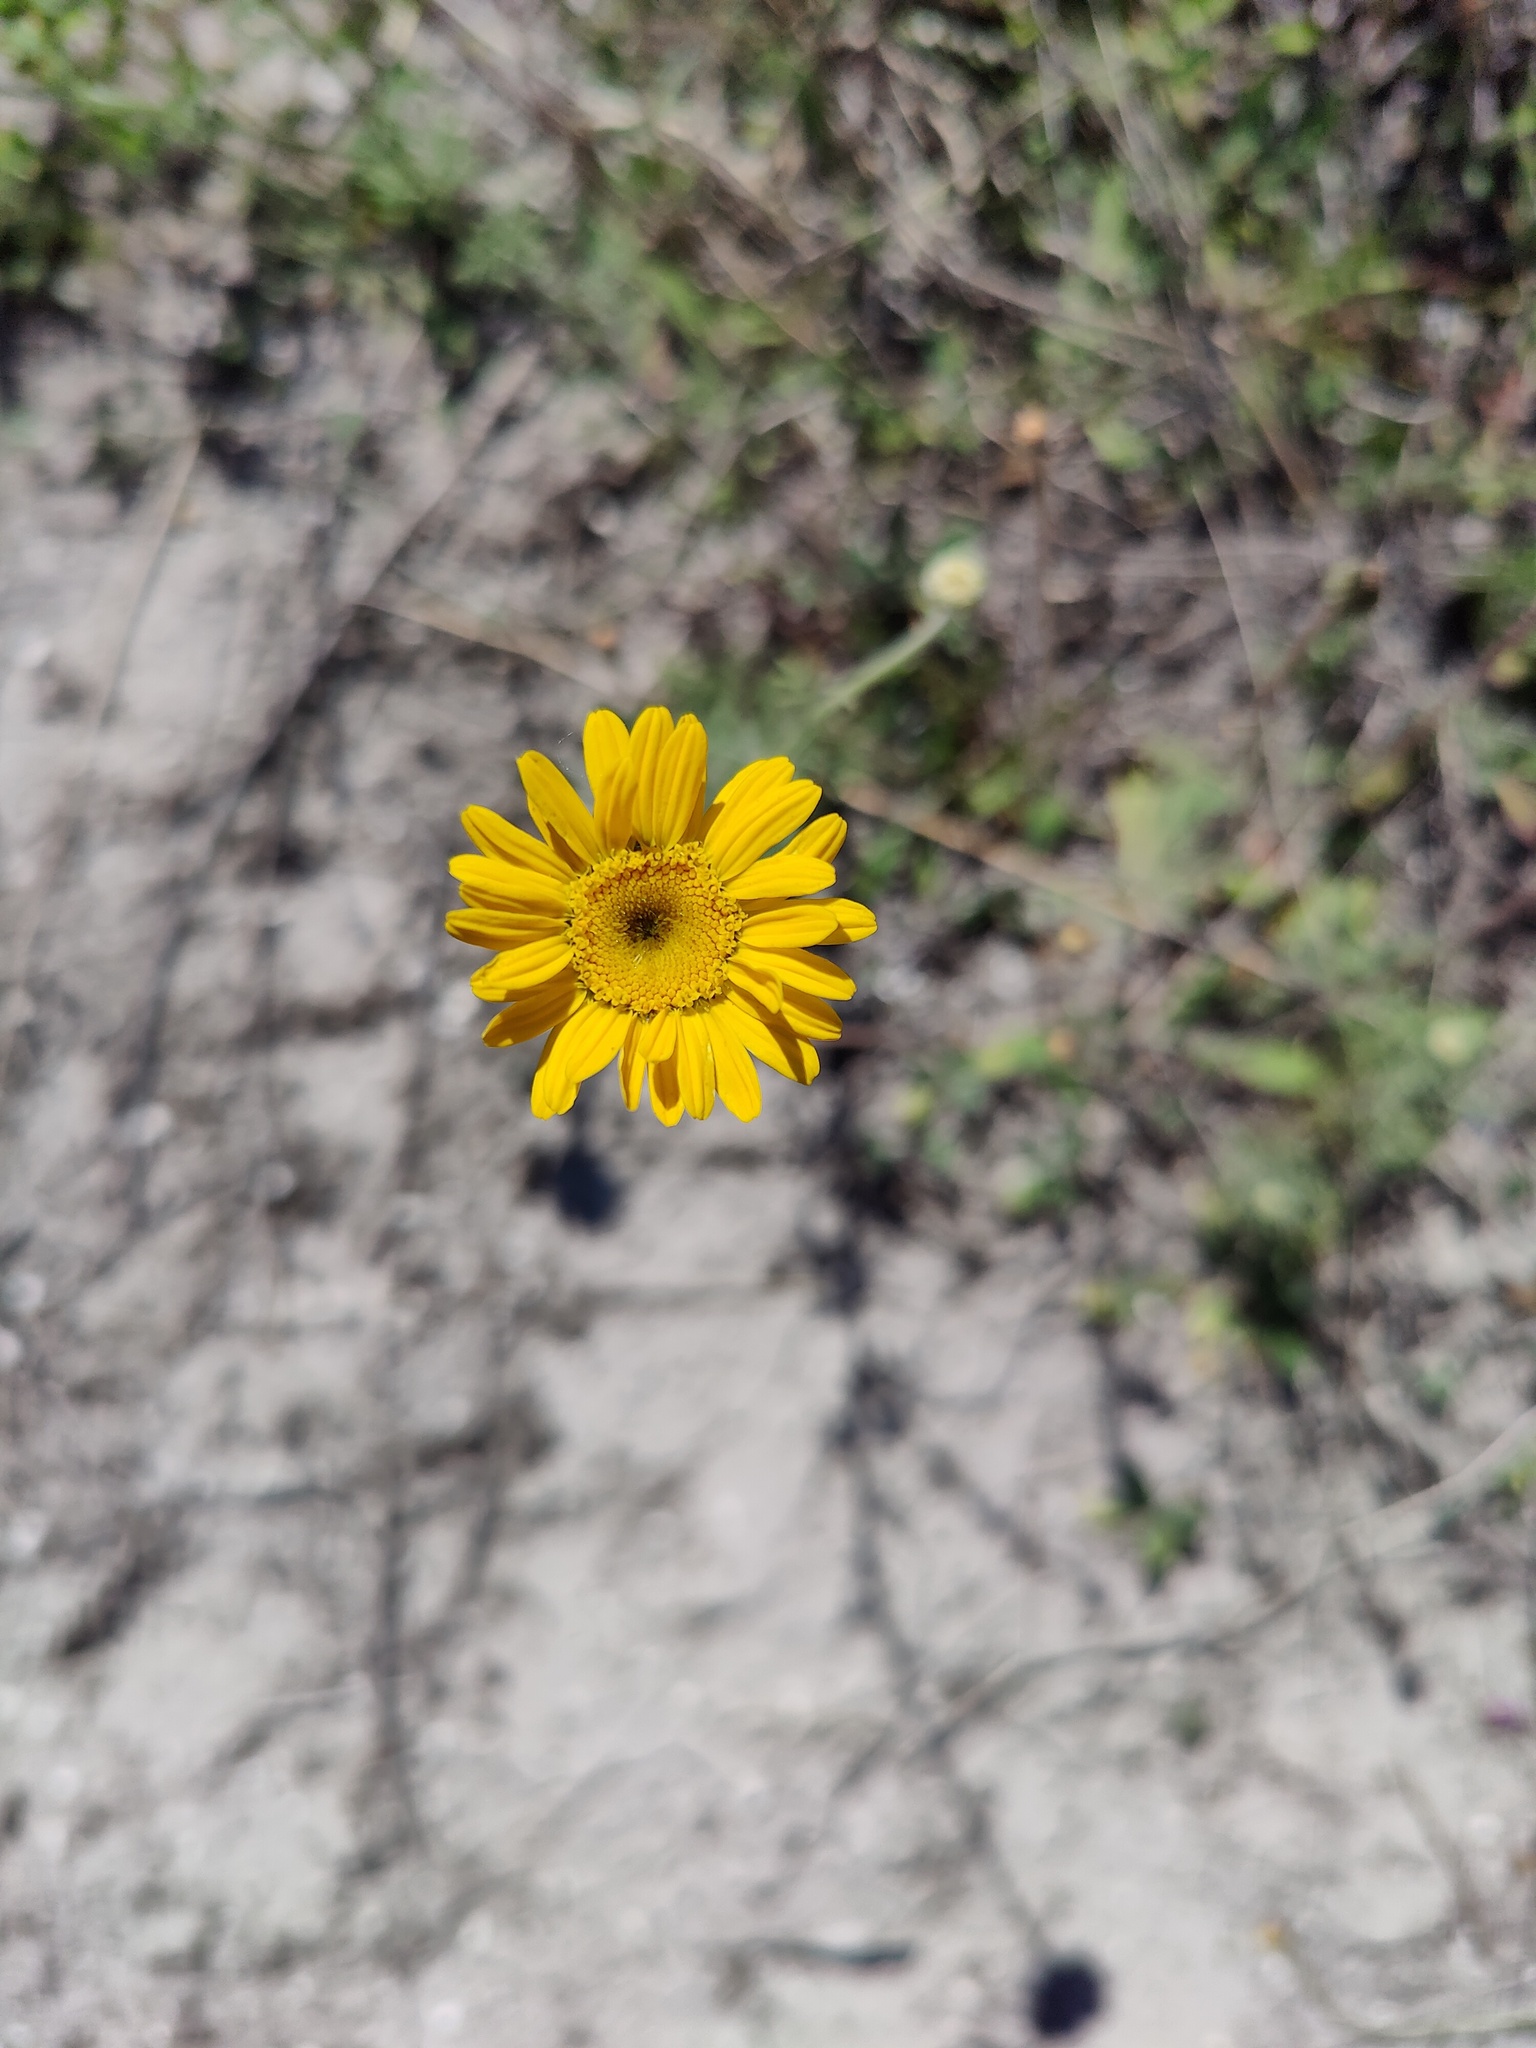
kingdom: Plantae
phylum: Tracheophyta
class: Magnoliopsida
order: Asterales
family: Asteraceae
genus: Cota
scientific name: Cota tinctoria
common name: Golden chamomile
